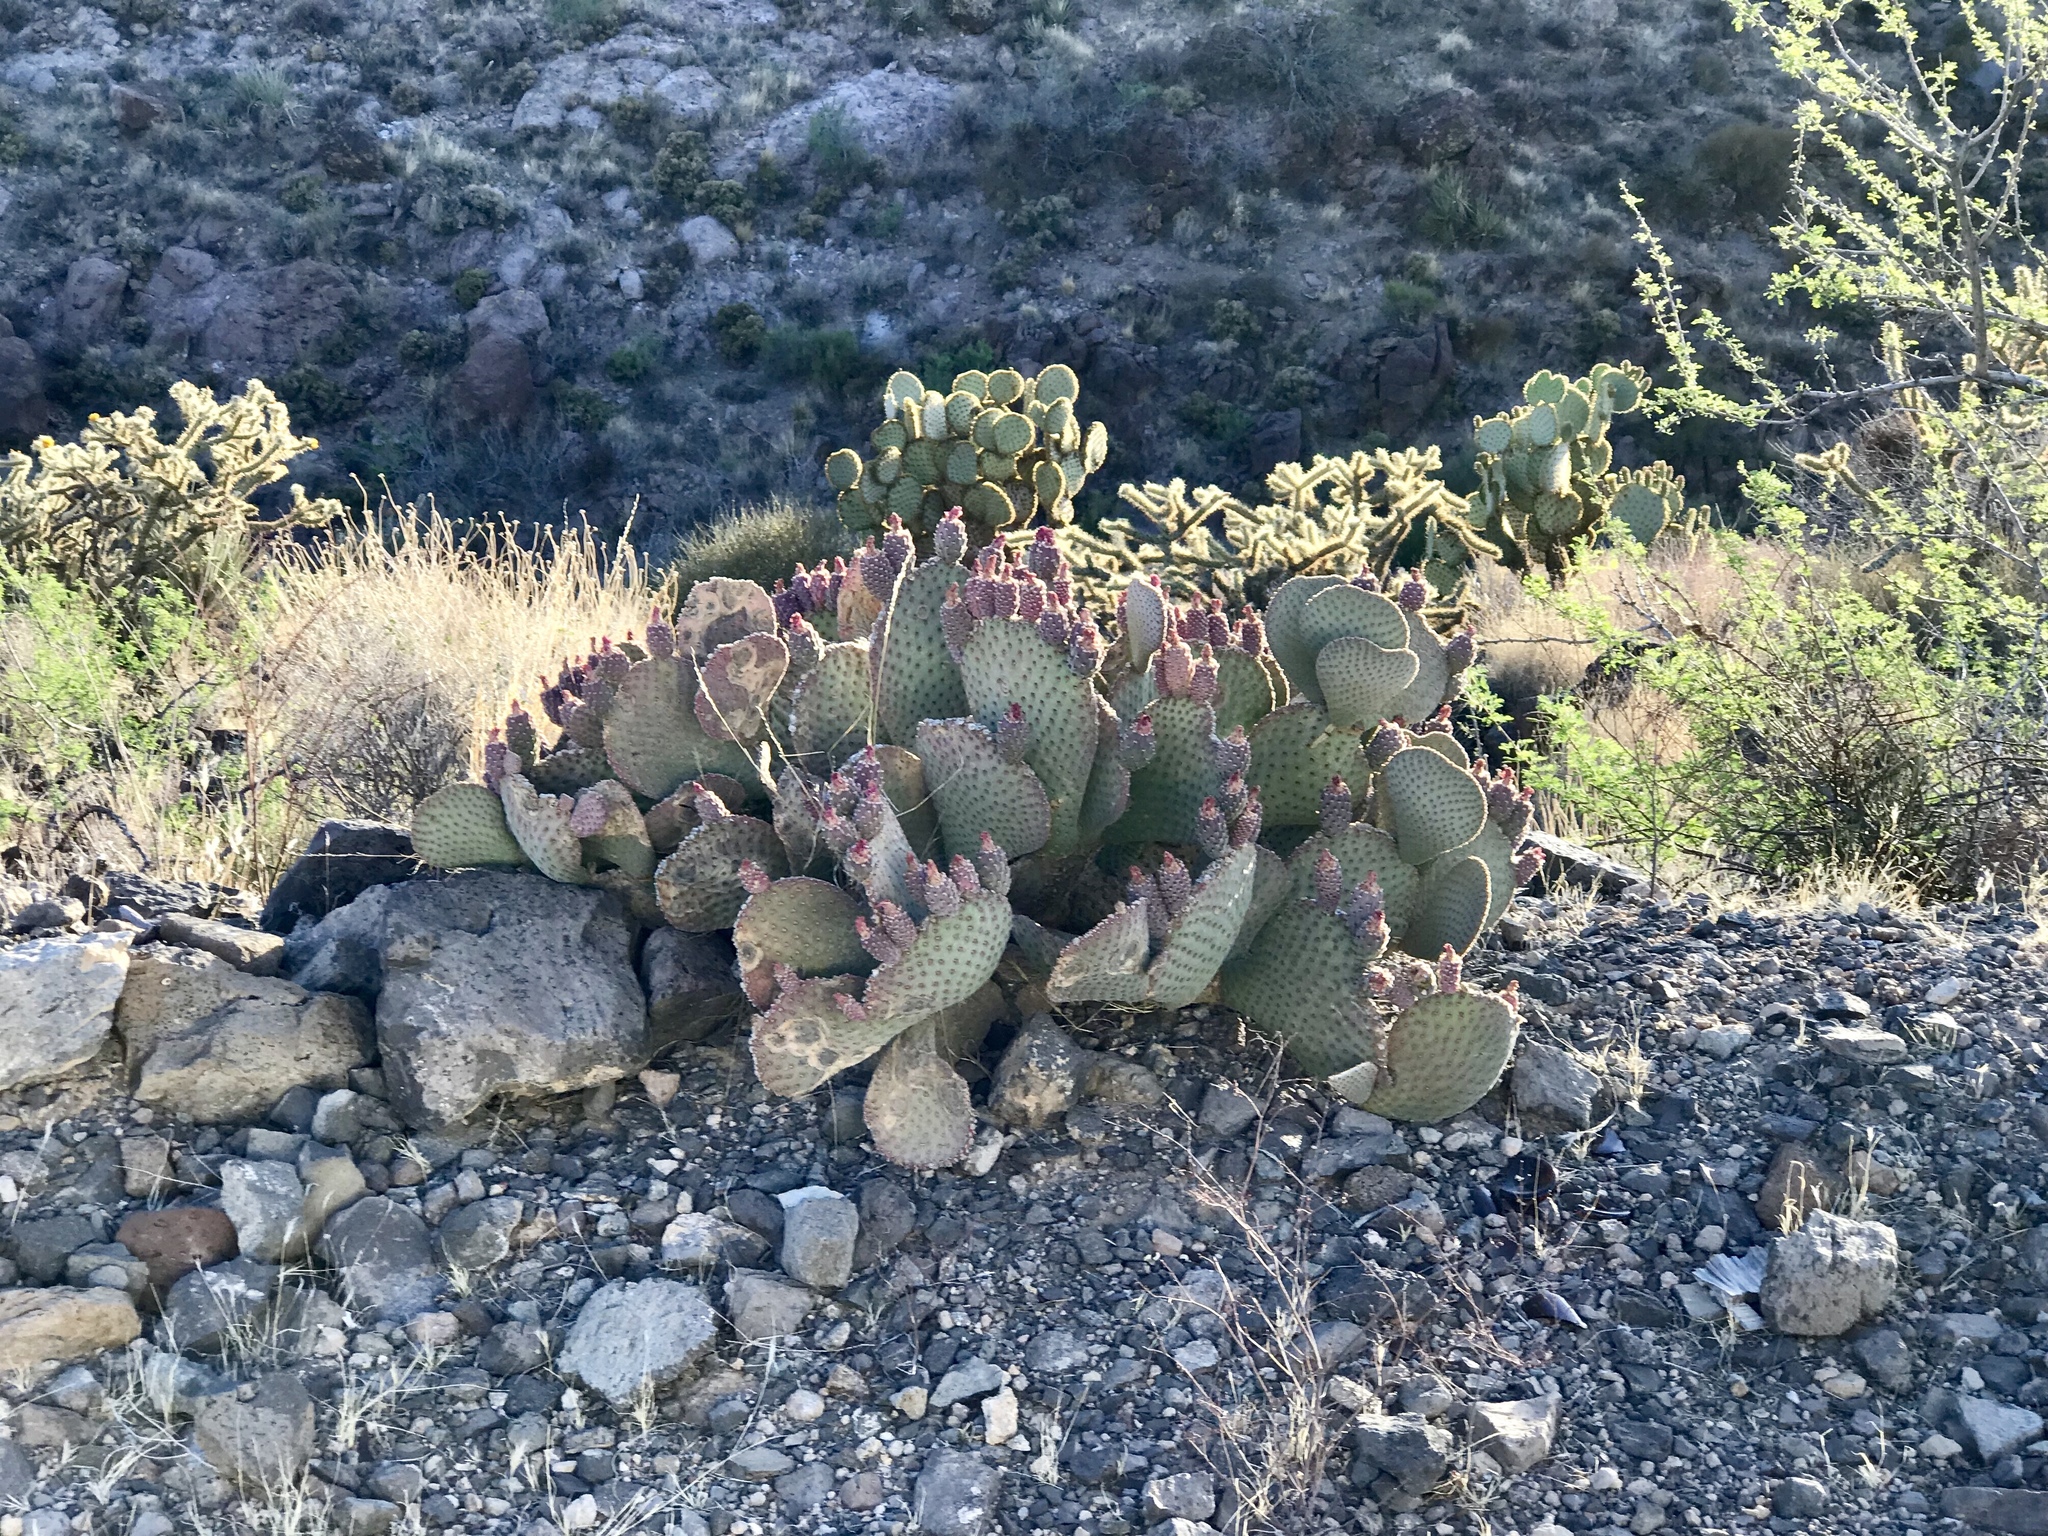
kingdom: Plantae
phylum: Tracheophyta
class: Magnoliopsida
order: Caryophyllales
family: Cactaceae
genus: Opuntia
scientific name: Opuntia basilaris
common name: Beavertail prickly-pear
